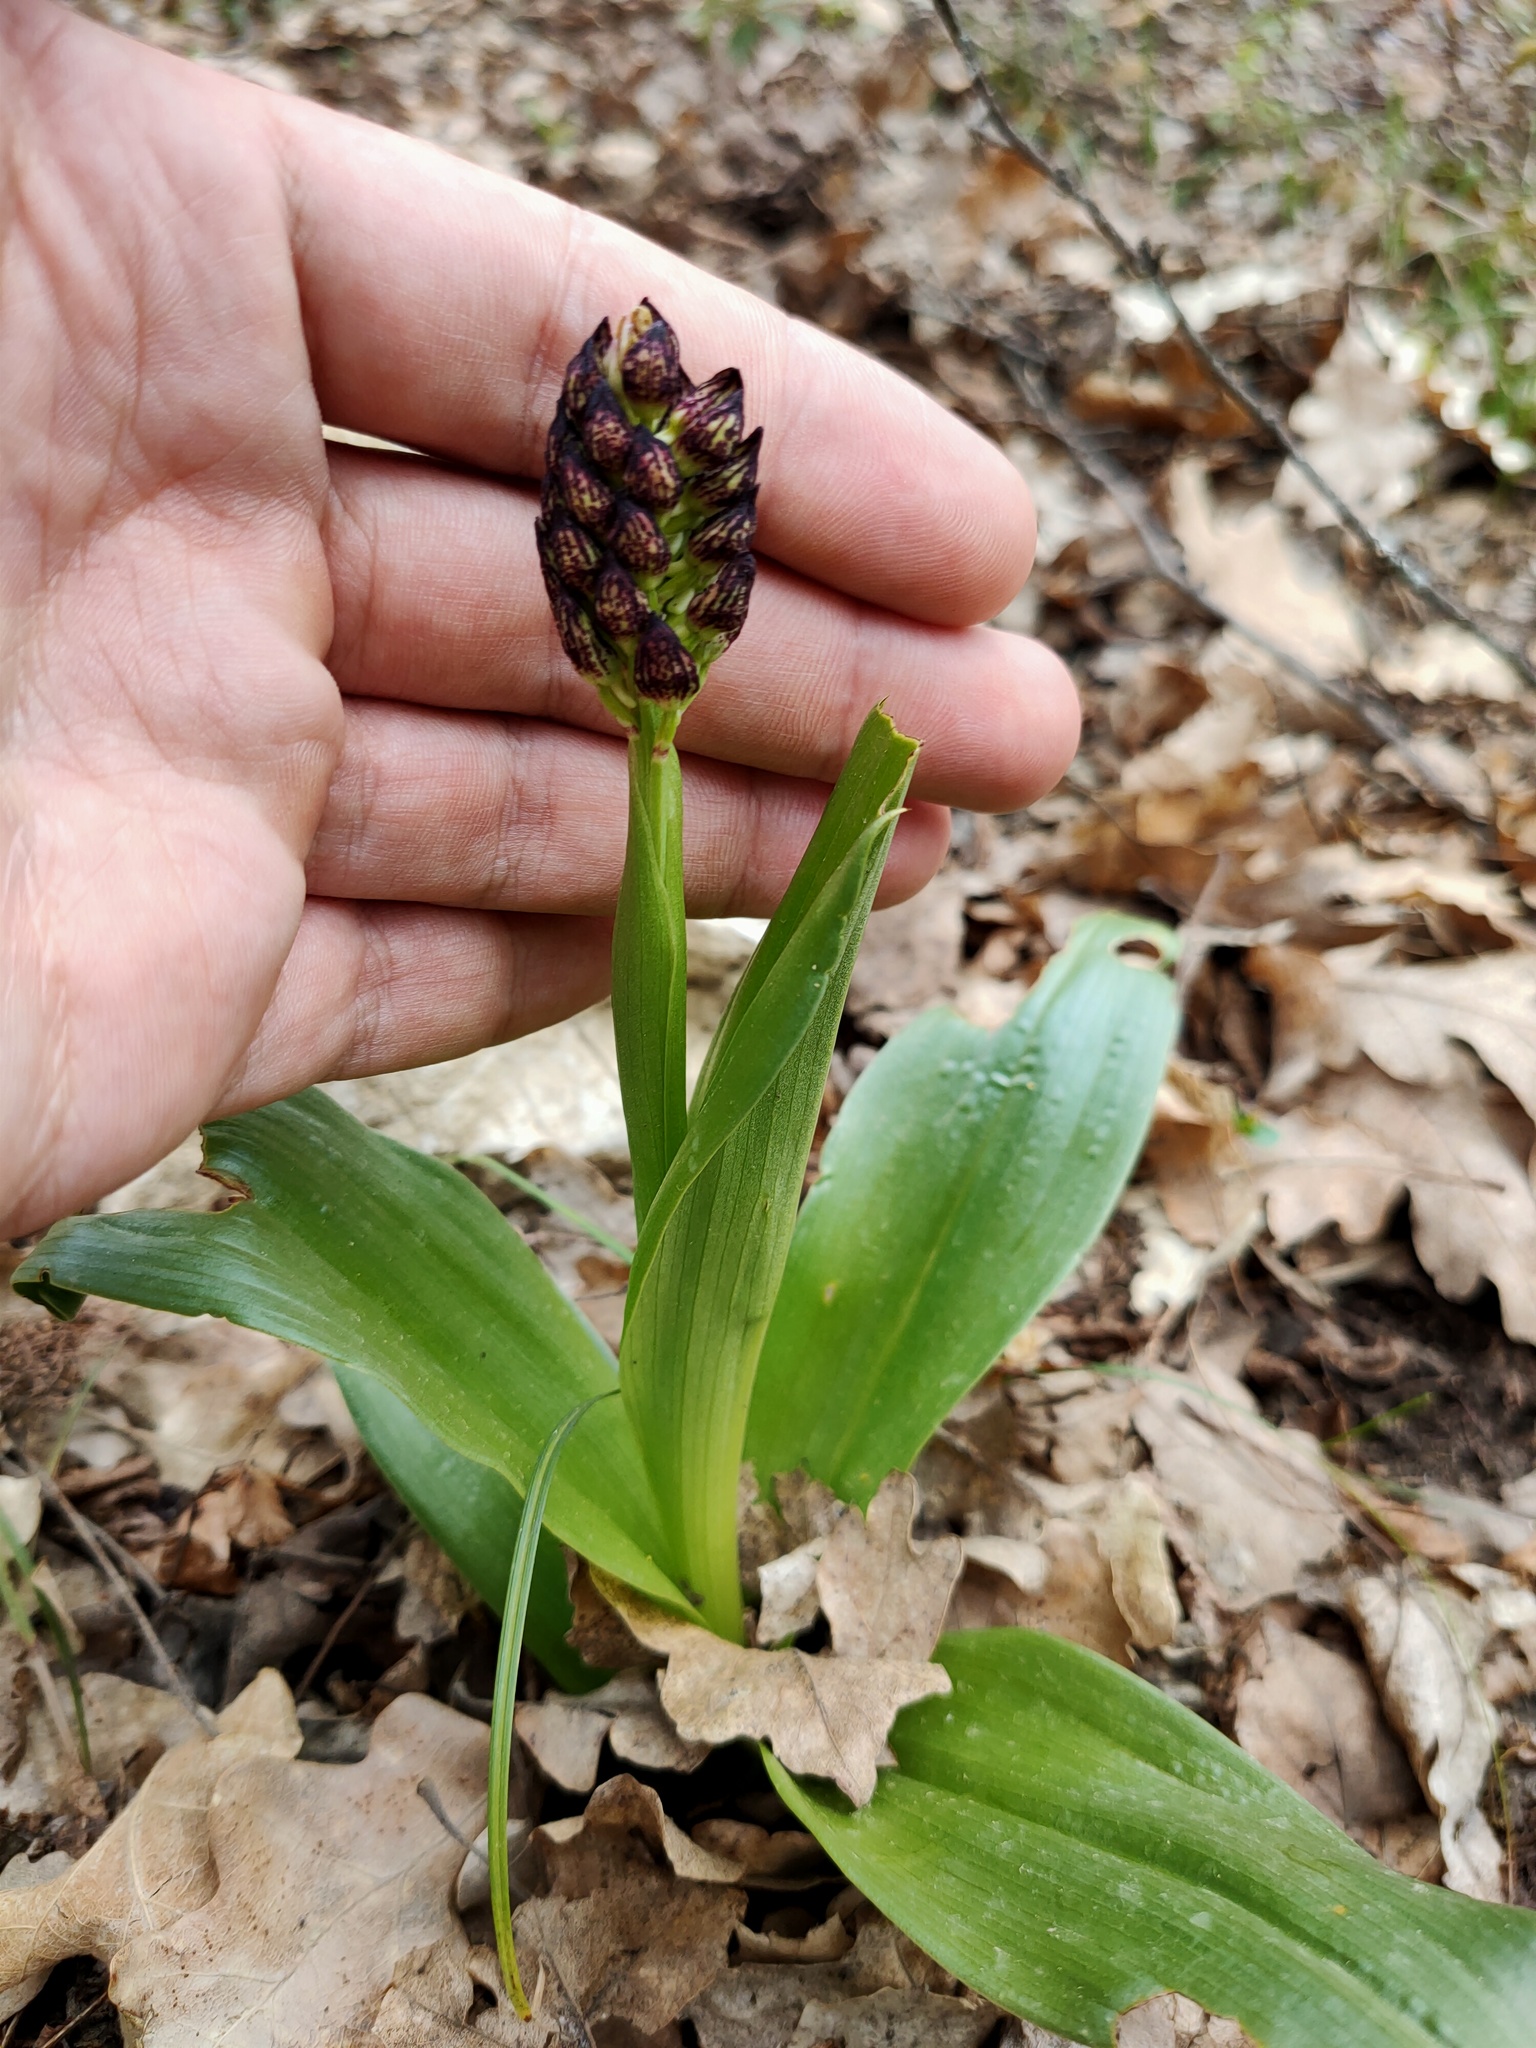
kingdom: Plantae
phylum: Tracheophyta
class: Liliopsida
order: Asparagales
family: Orchidaceae
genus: Orchis
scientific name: Orchis purpurea
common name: Lady orchid
